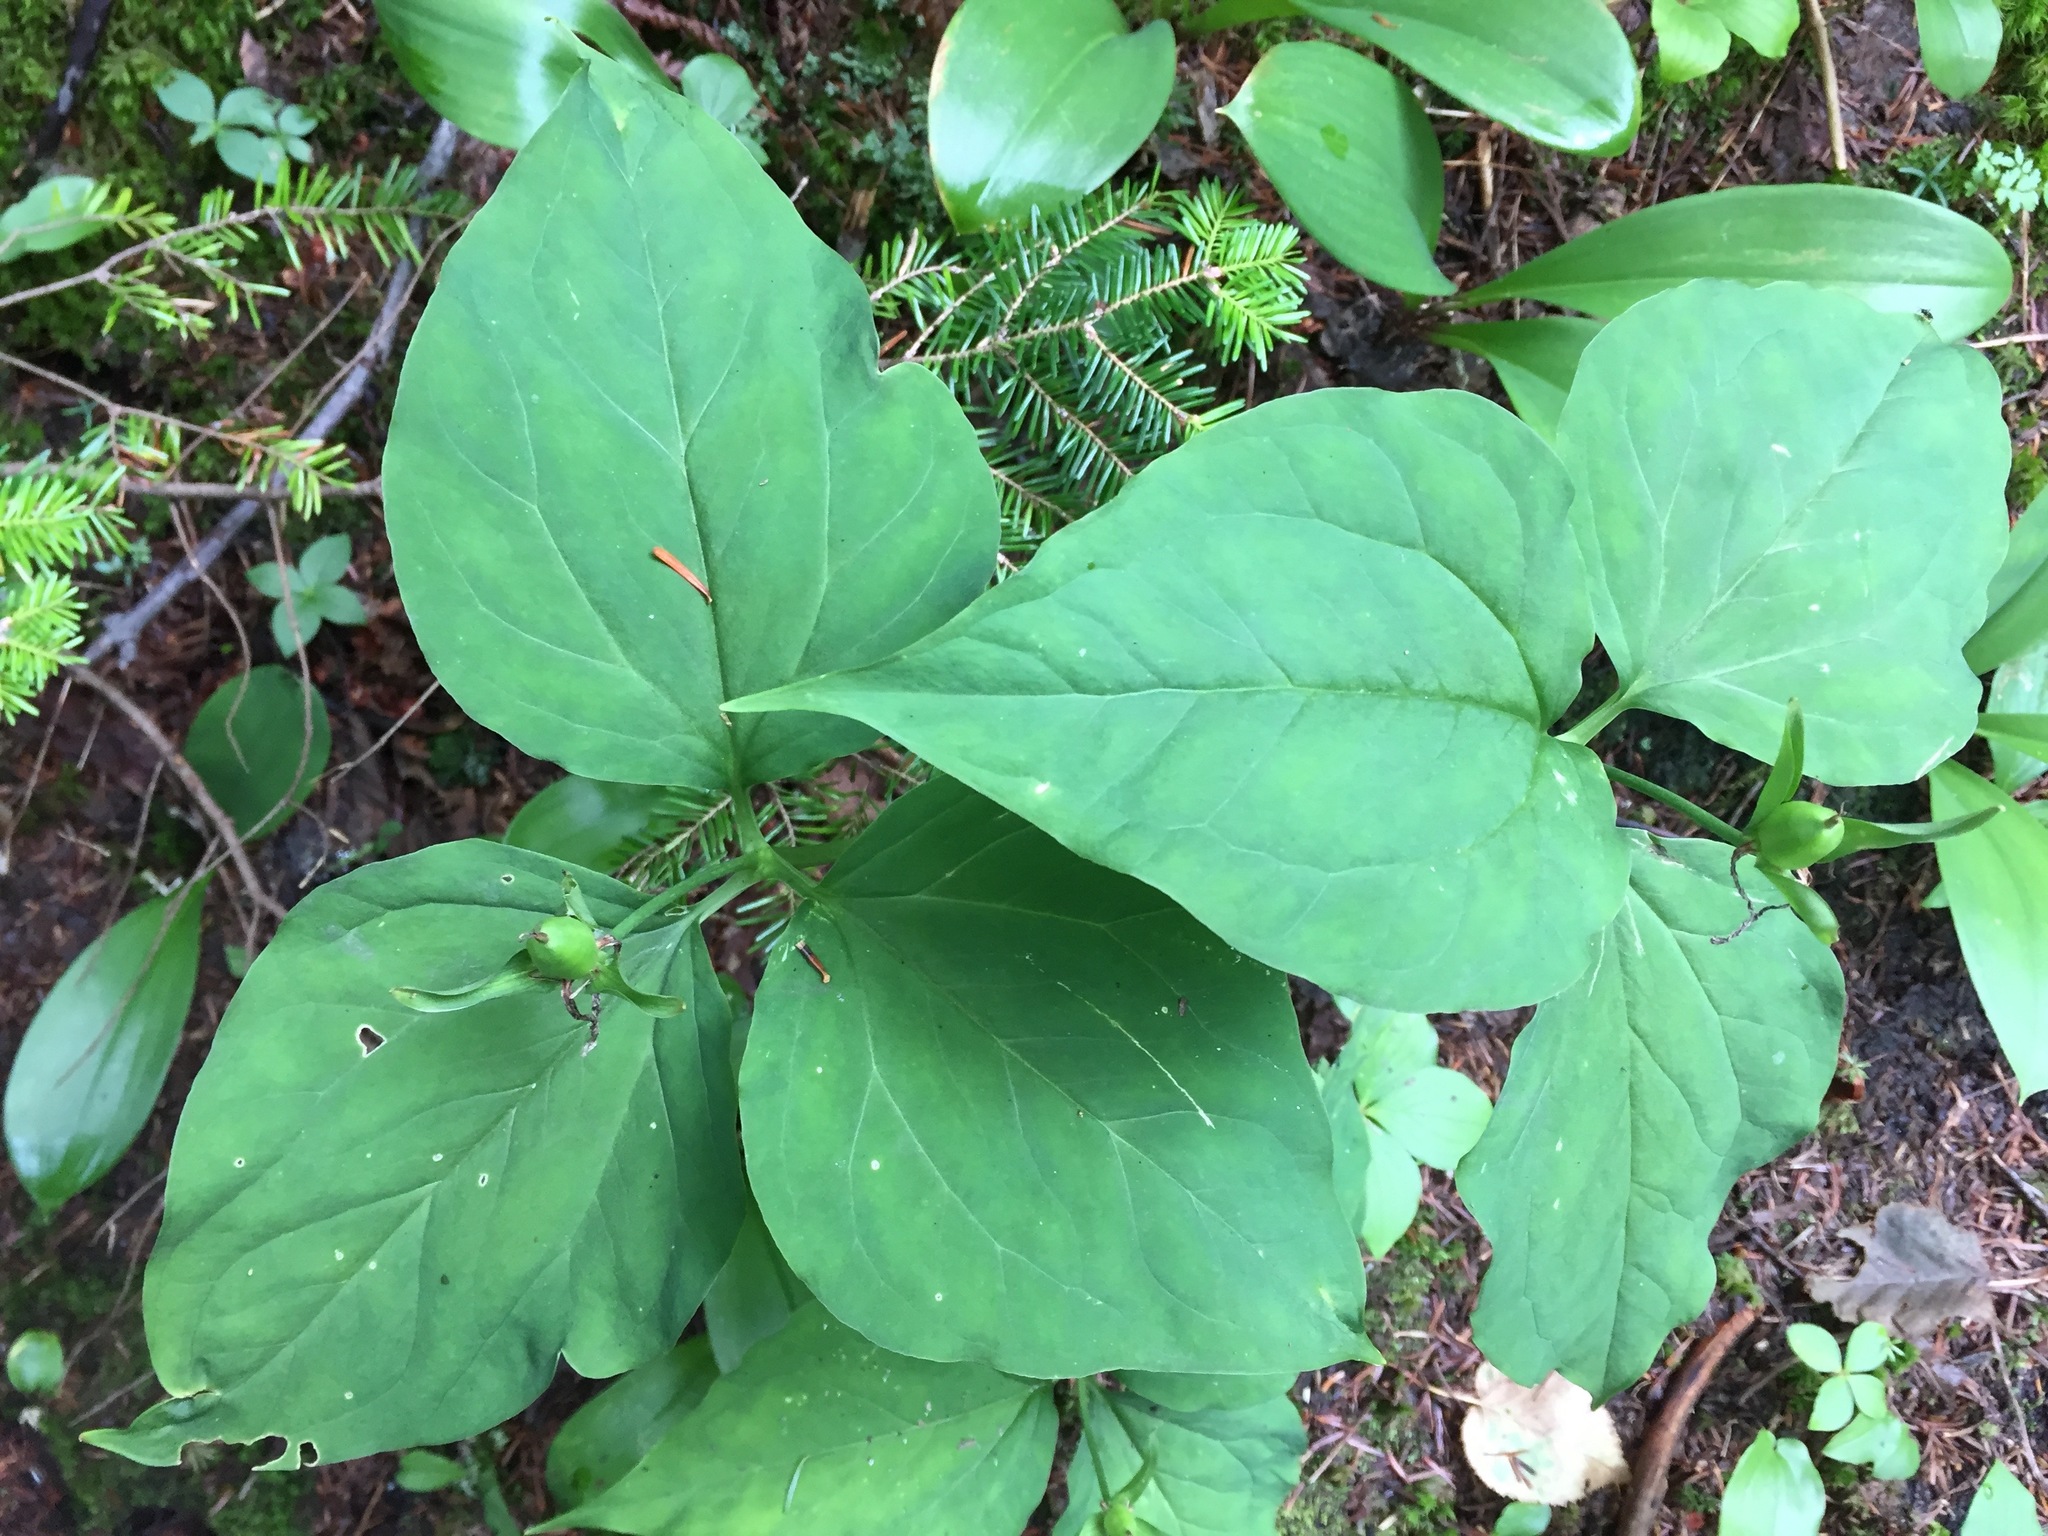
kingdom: Plantae
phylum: Tracheophyta
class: Liliopsida
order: Liliales
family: Melanthiaceae
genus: Trillium
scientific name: Trillium undulatum
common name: Paint trillium
